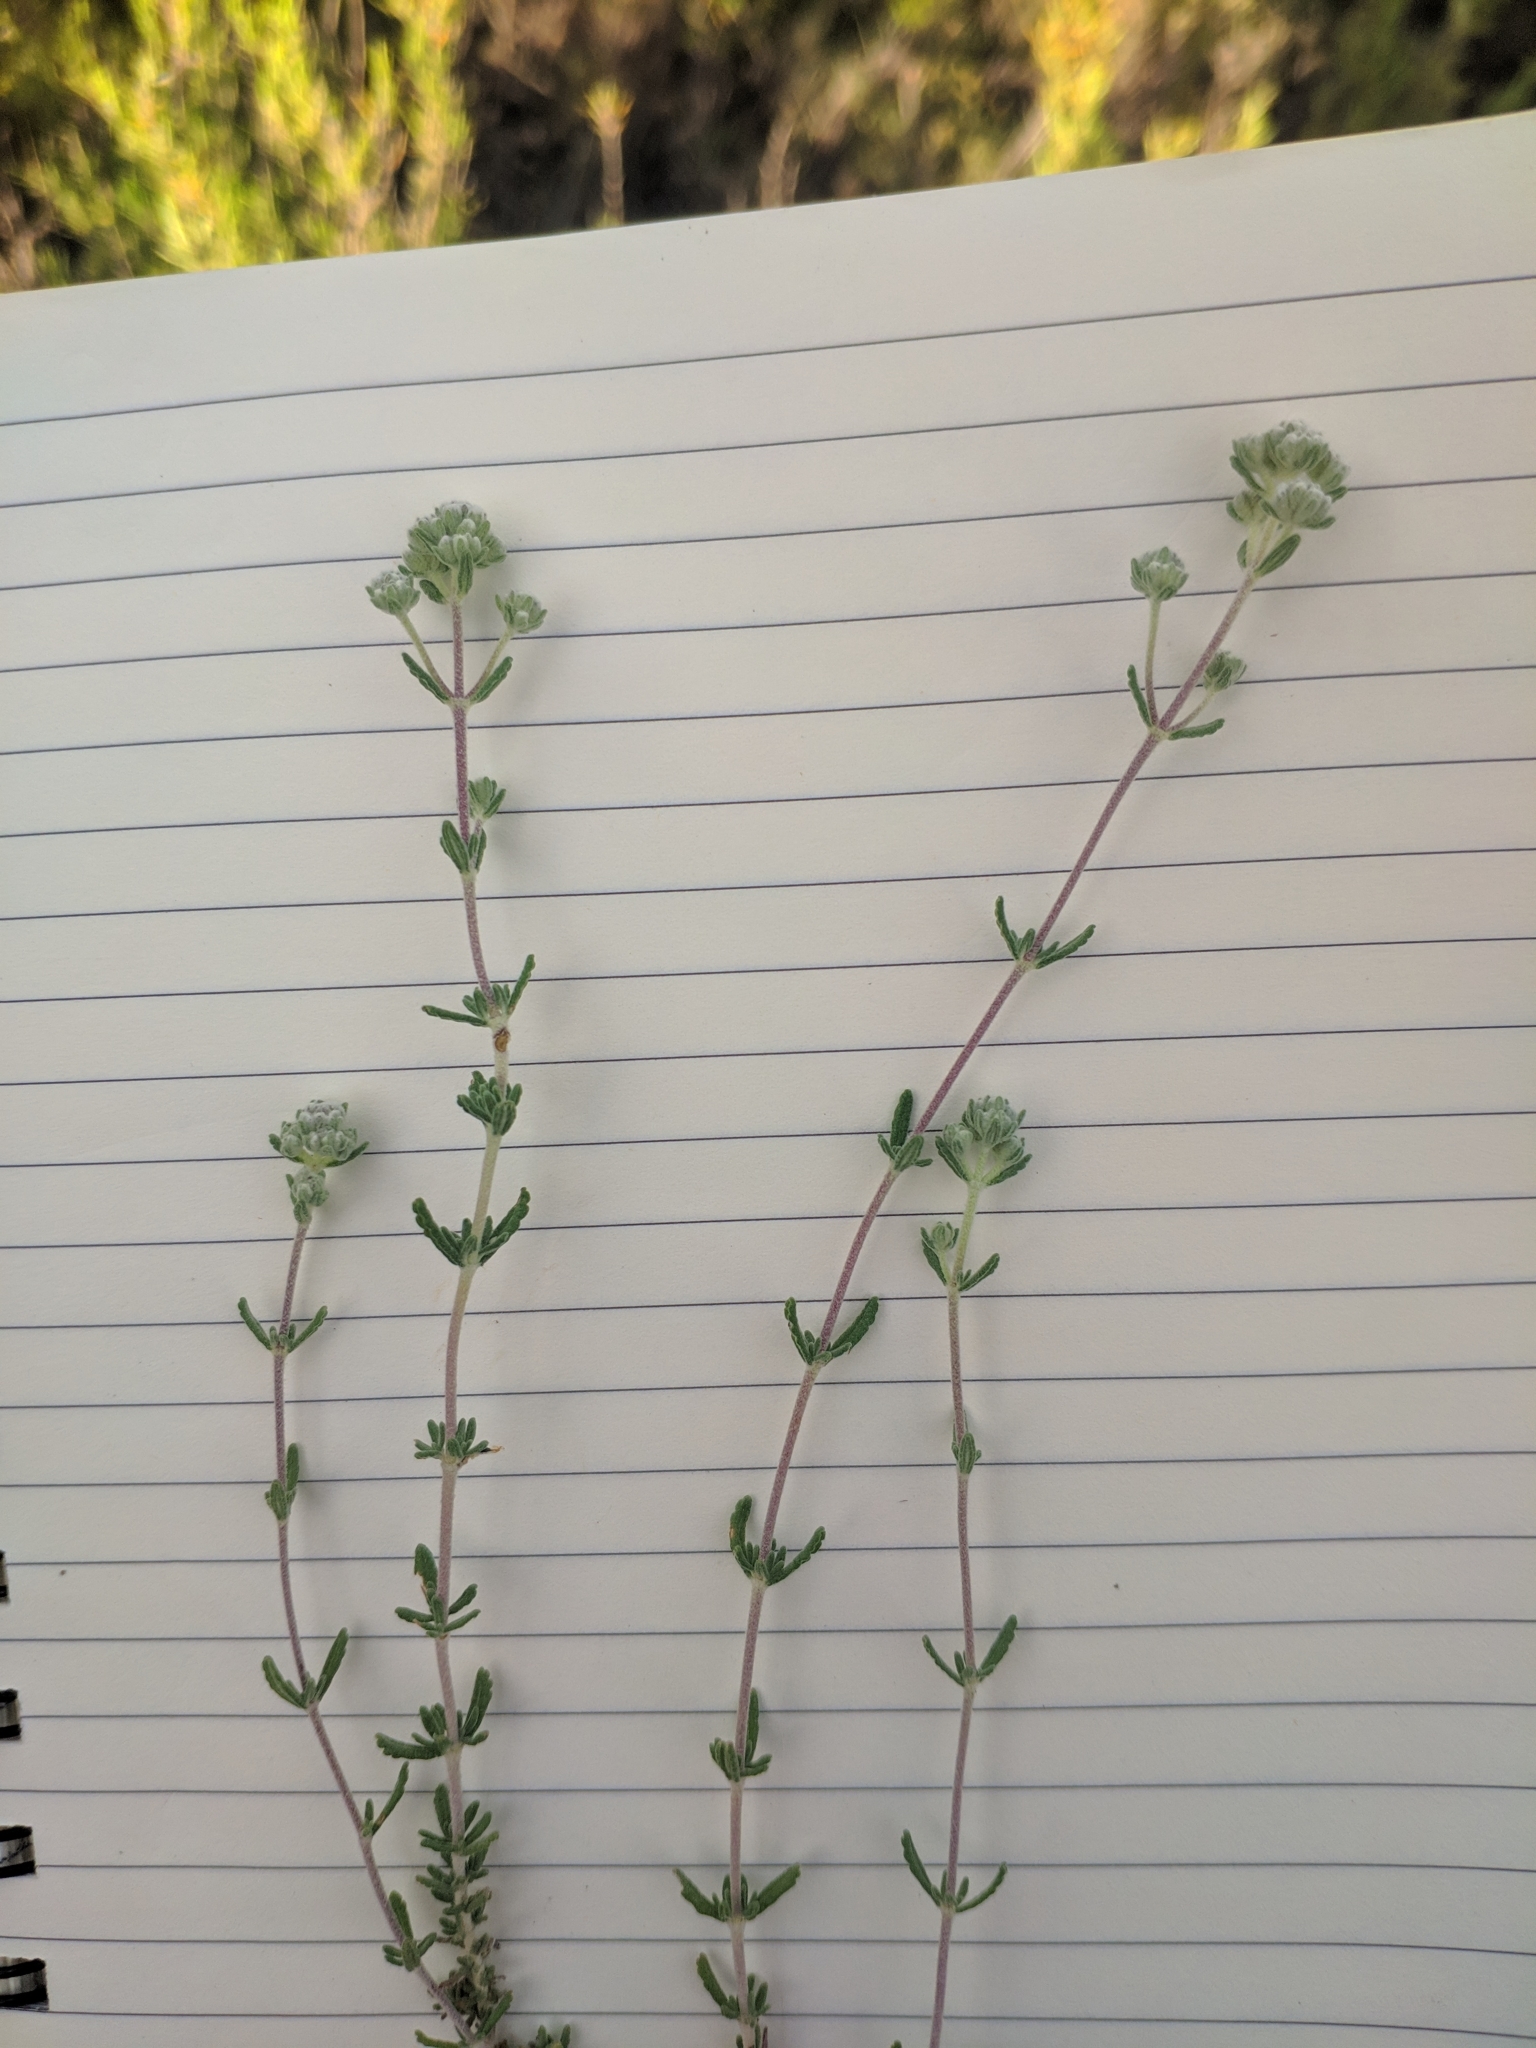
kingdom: Plantae
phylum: Tracheophyta
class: Magnoliopsida
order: Lamiales
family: Lamiaceae
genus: Teucrium
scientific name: Teucrium capitatum
